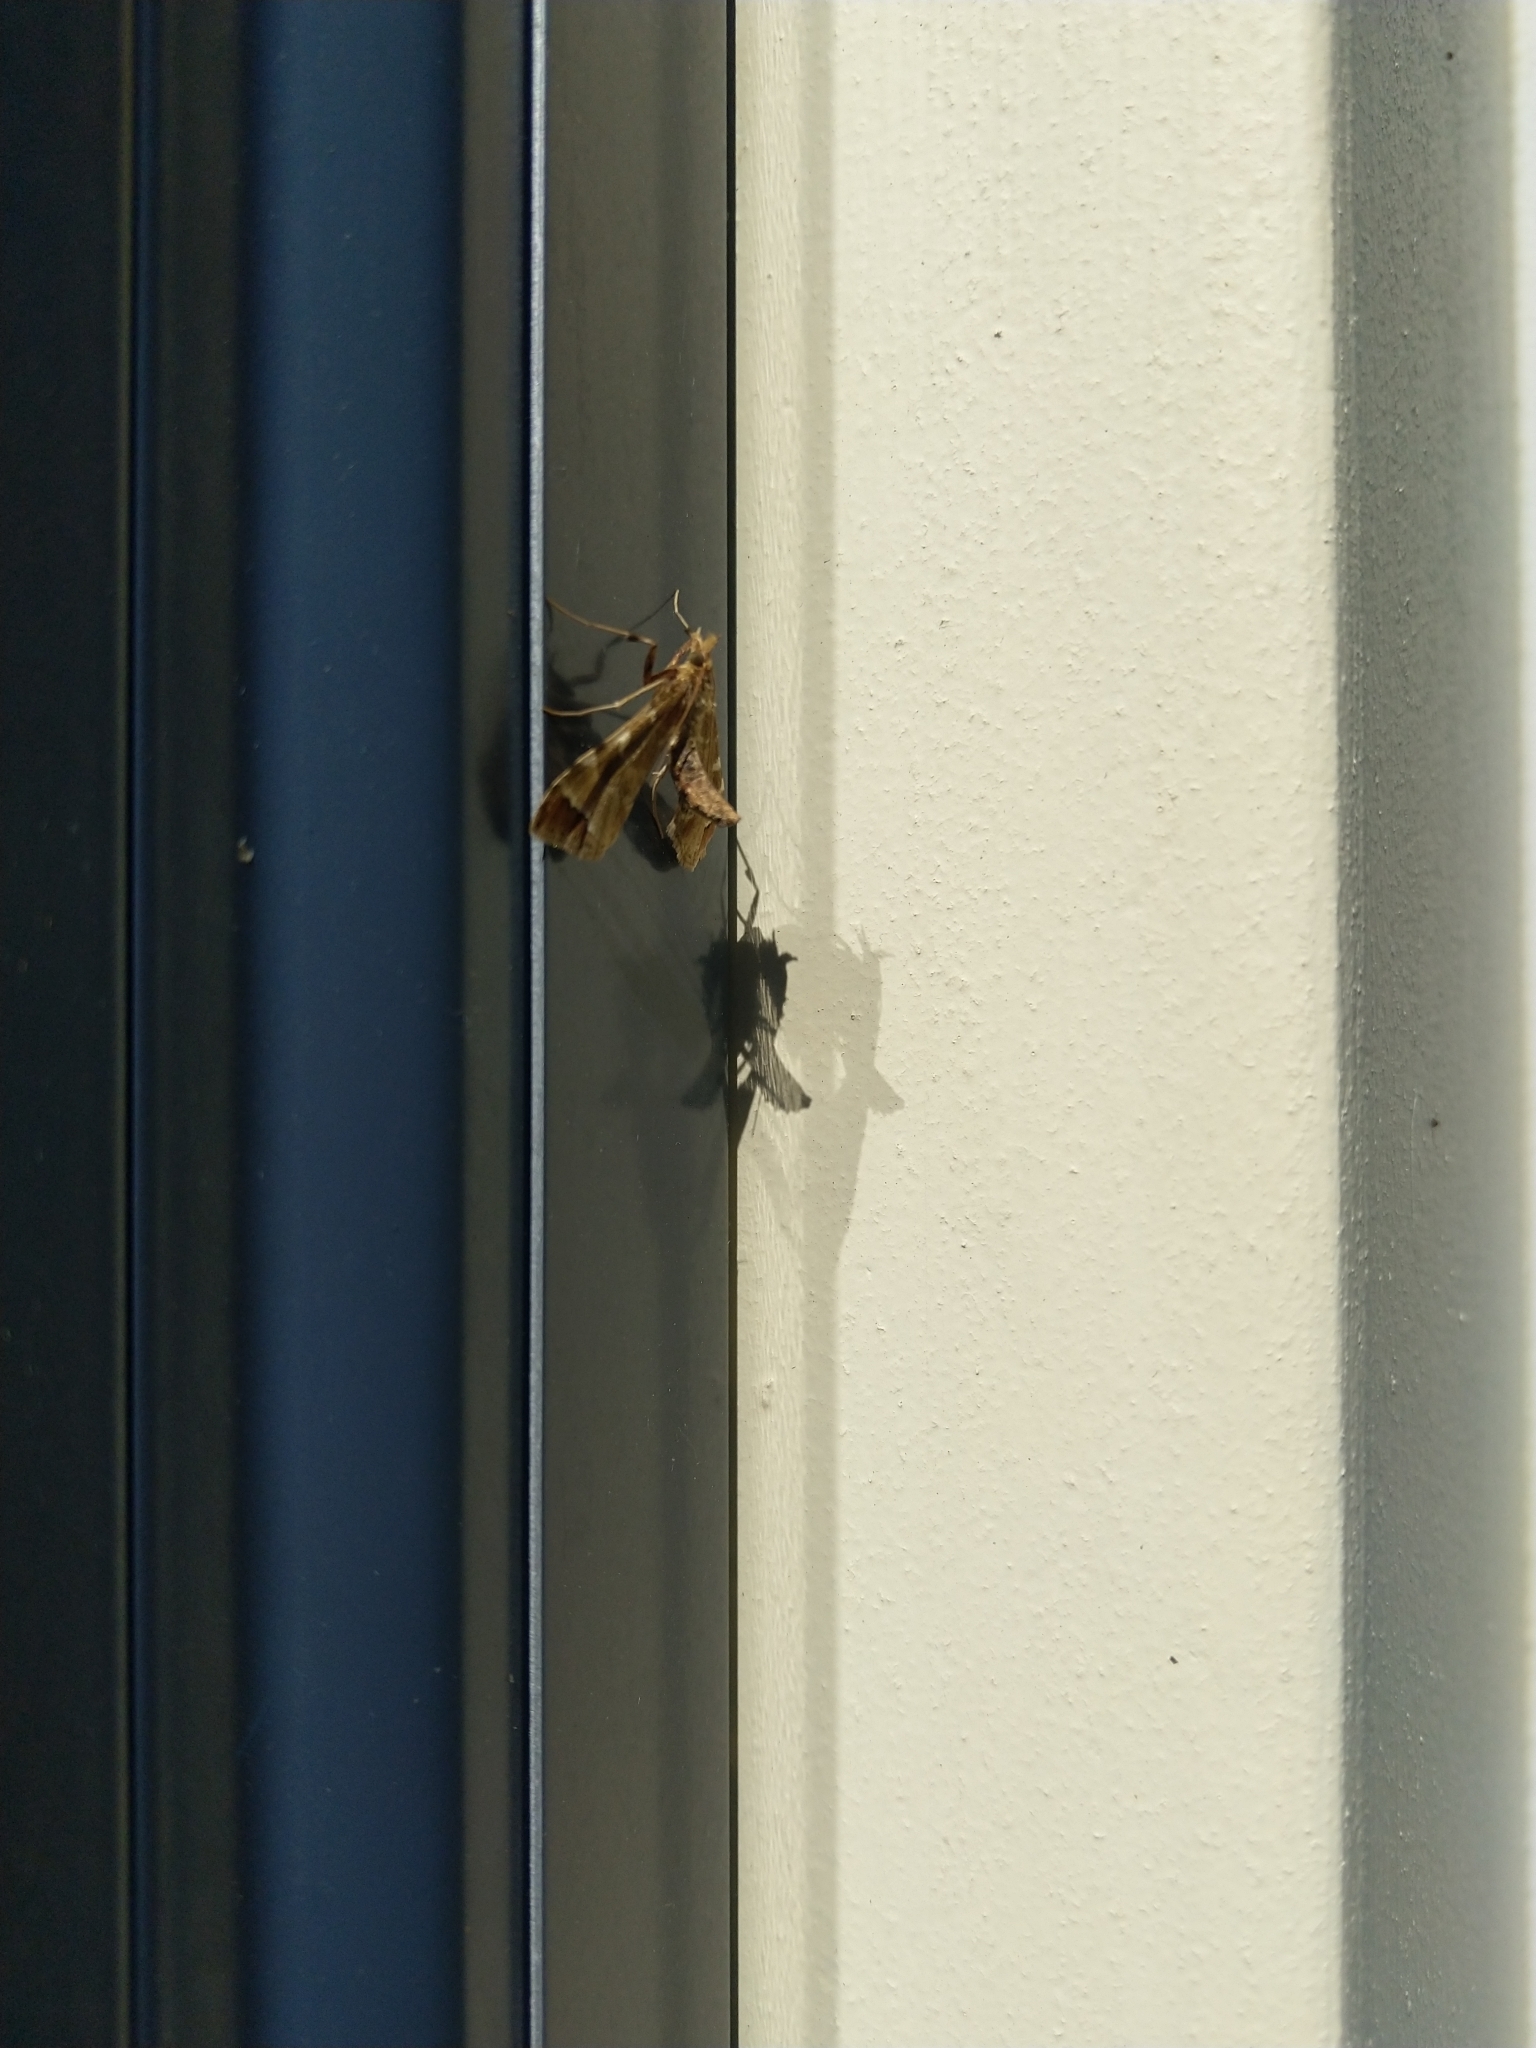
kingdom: Animalia
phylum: Arthropoda
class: Insecta
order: Lepidoptera
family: Crambidae
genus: Sceliodes
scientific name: Sceliodes cordalis
